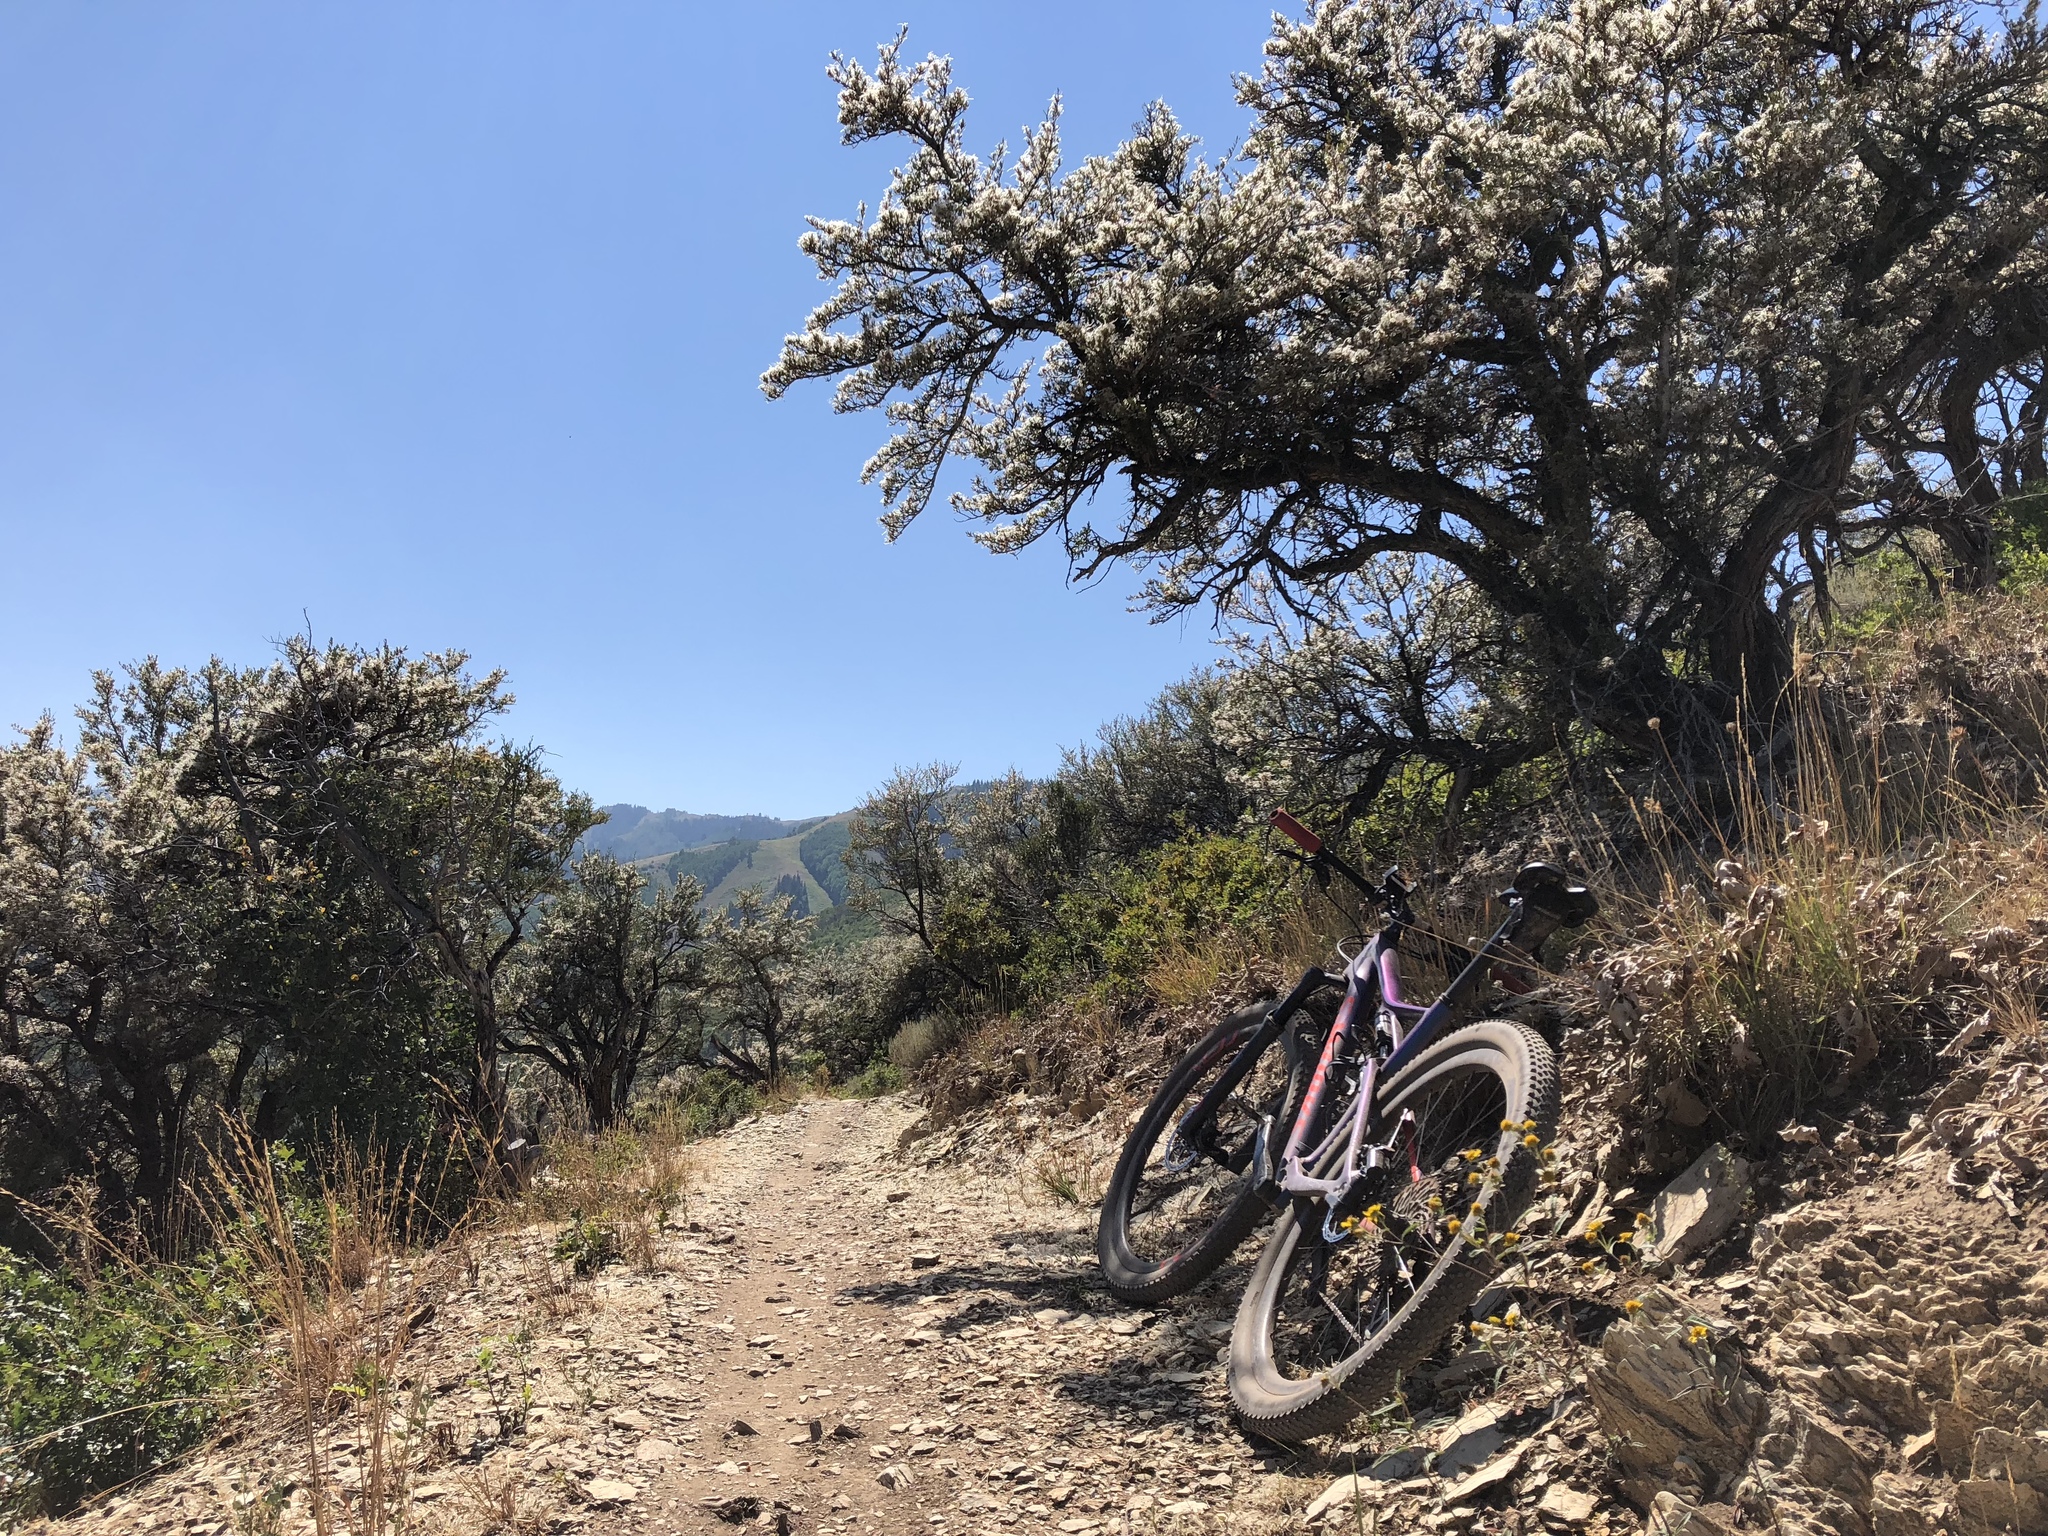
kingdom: Plantae
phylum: Tracheophyta
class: Magnoliopsida
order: Rosales
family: Rosaceae
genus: Cercocarpus
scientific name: Cercocarpus ledifolius
